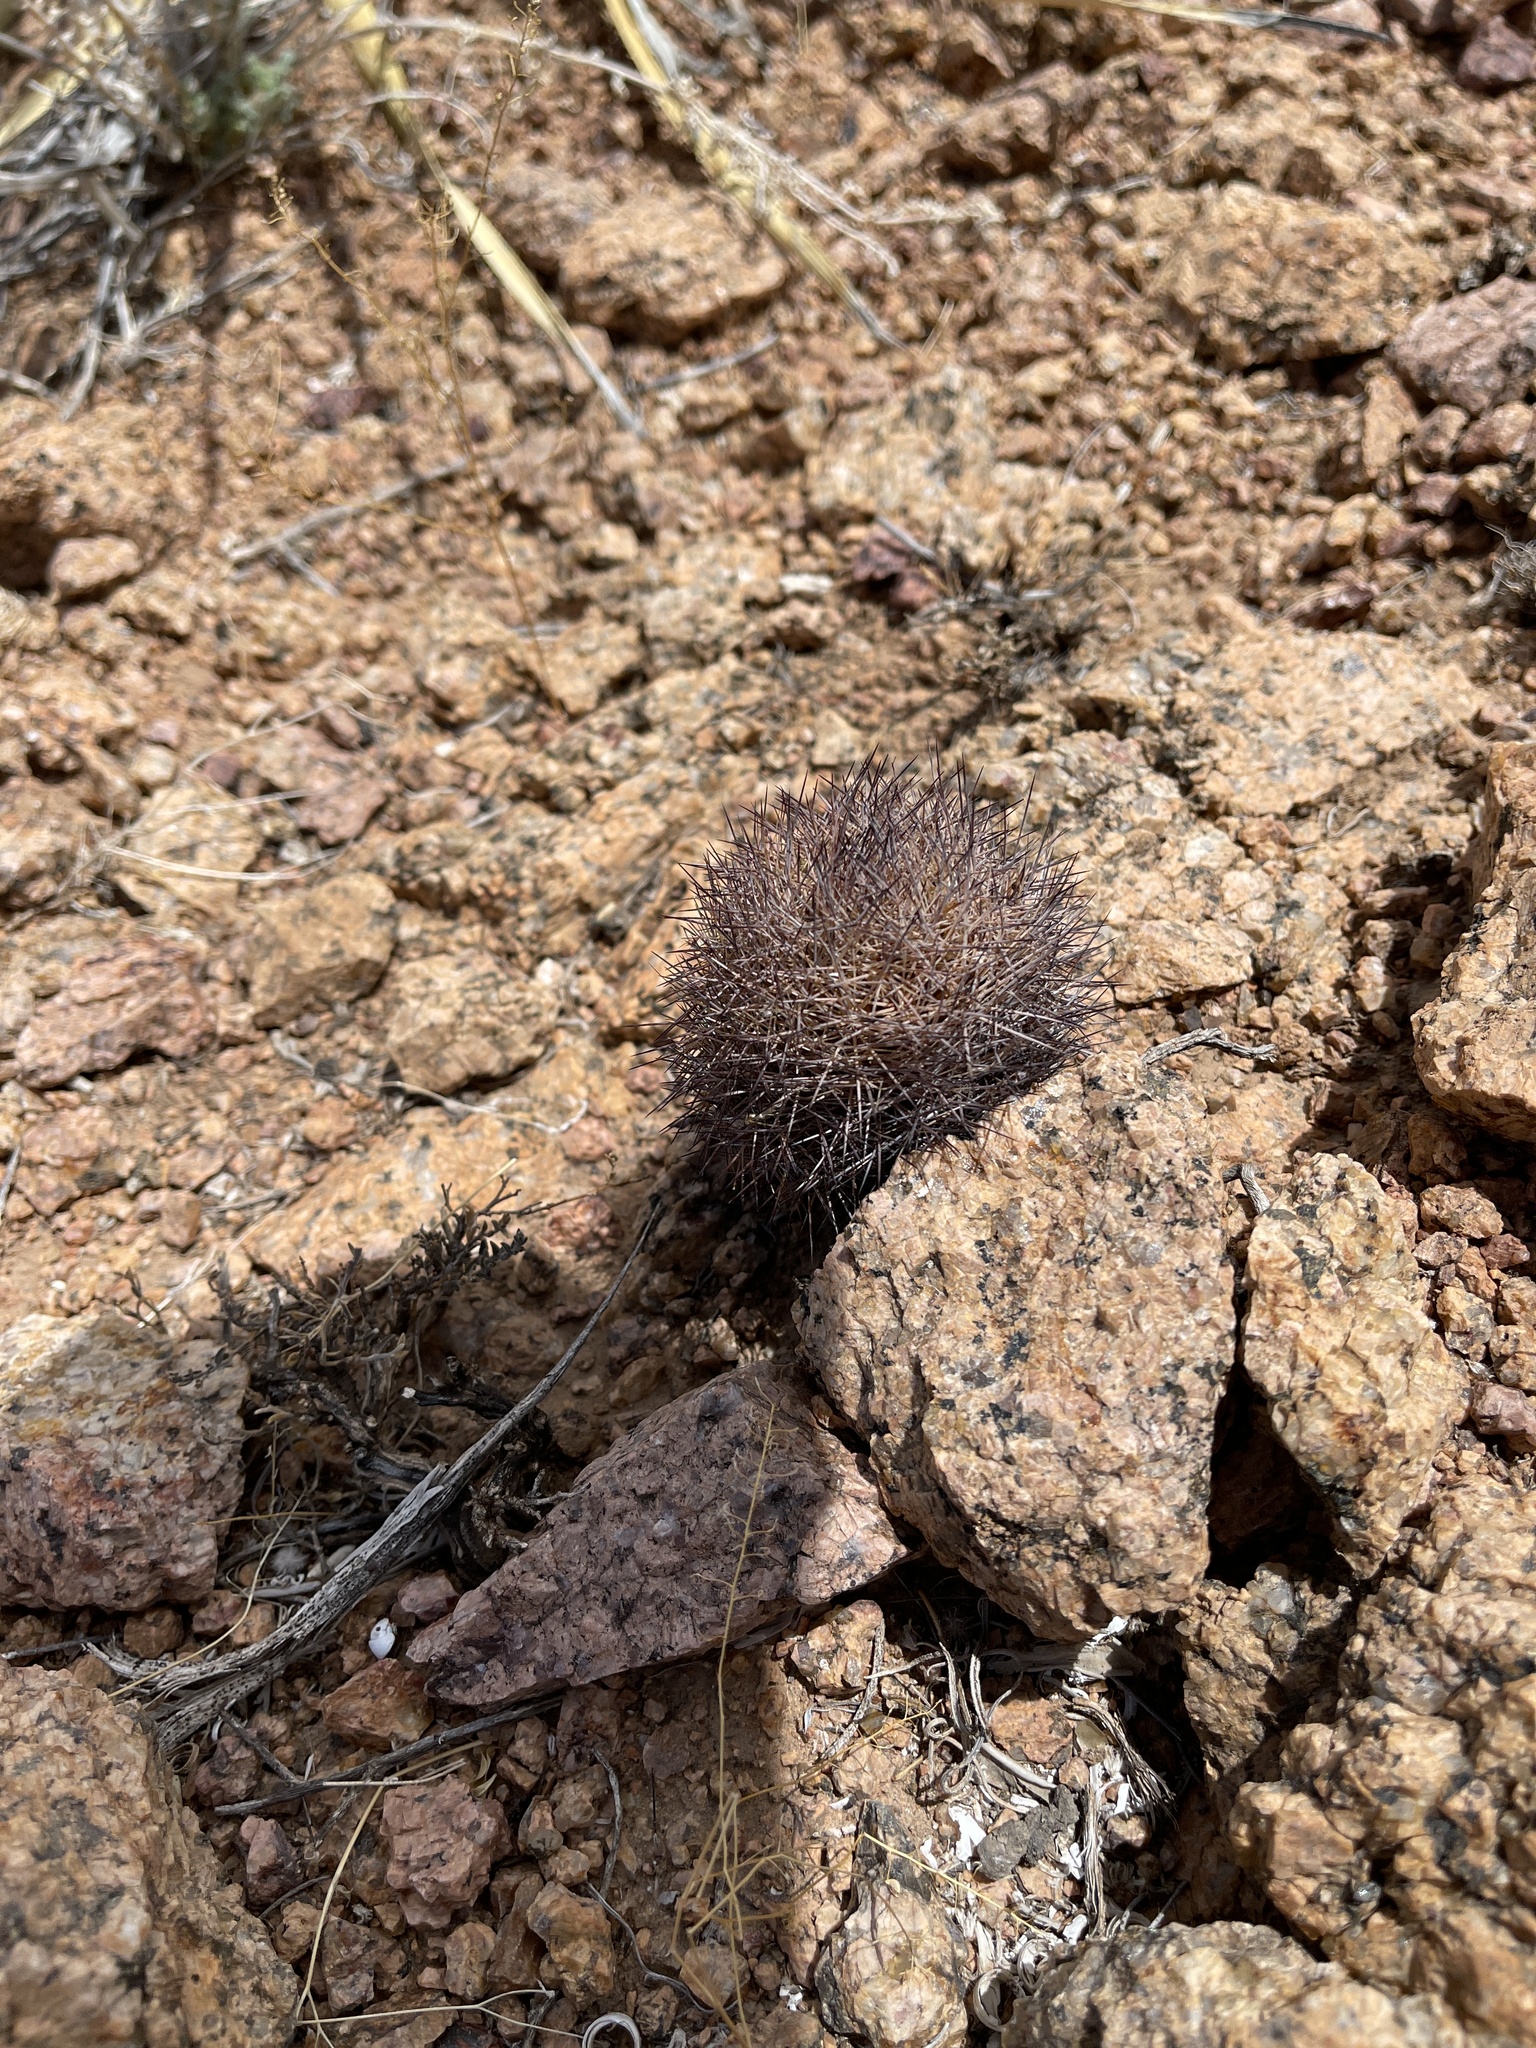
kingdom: Plantae
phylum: Tracheophyta
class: Magnoliopsida
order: Caryophyllales
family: Cactaceae
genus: Sclerocactus
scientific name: Sclerocactus intertextus
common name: White fish-hook cactus
